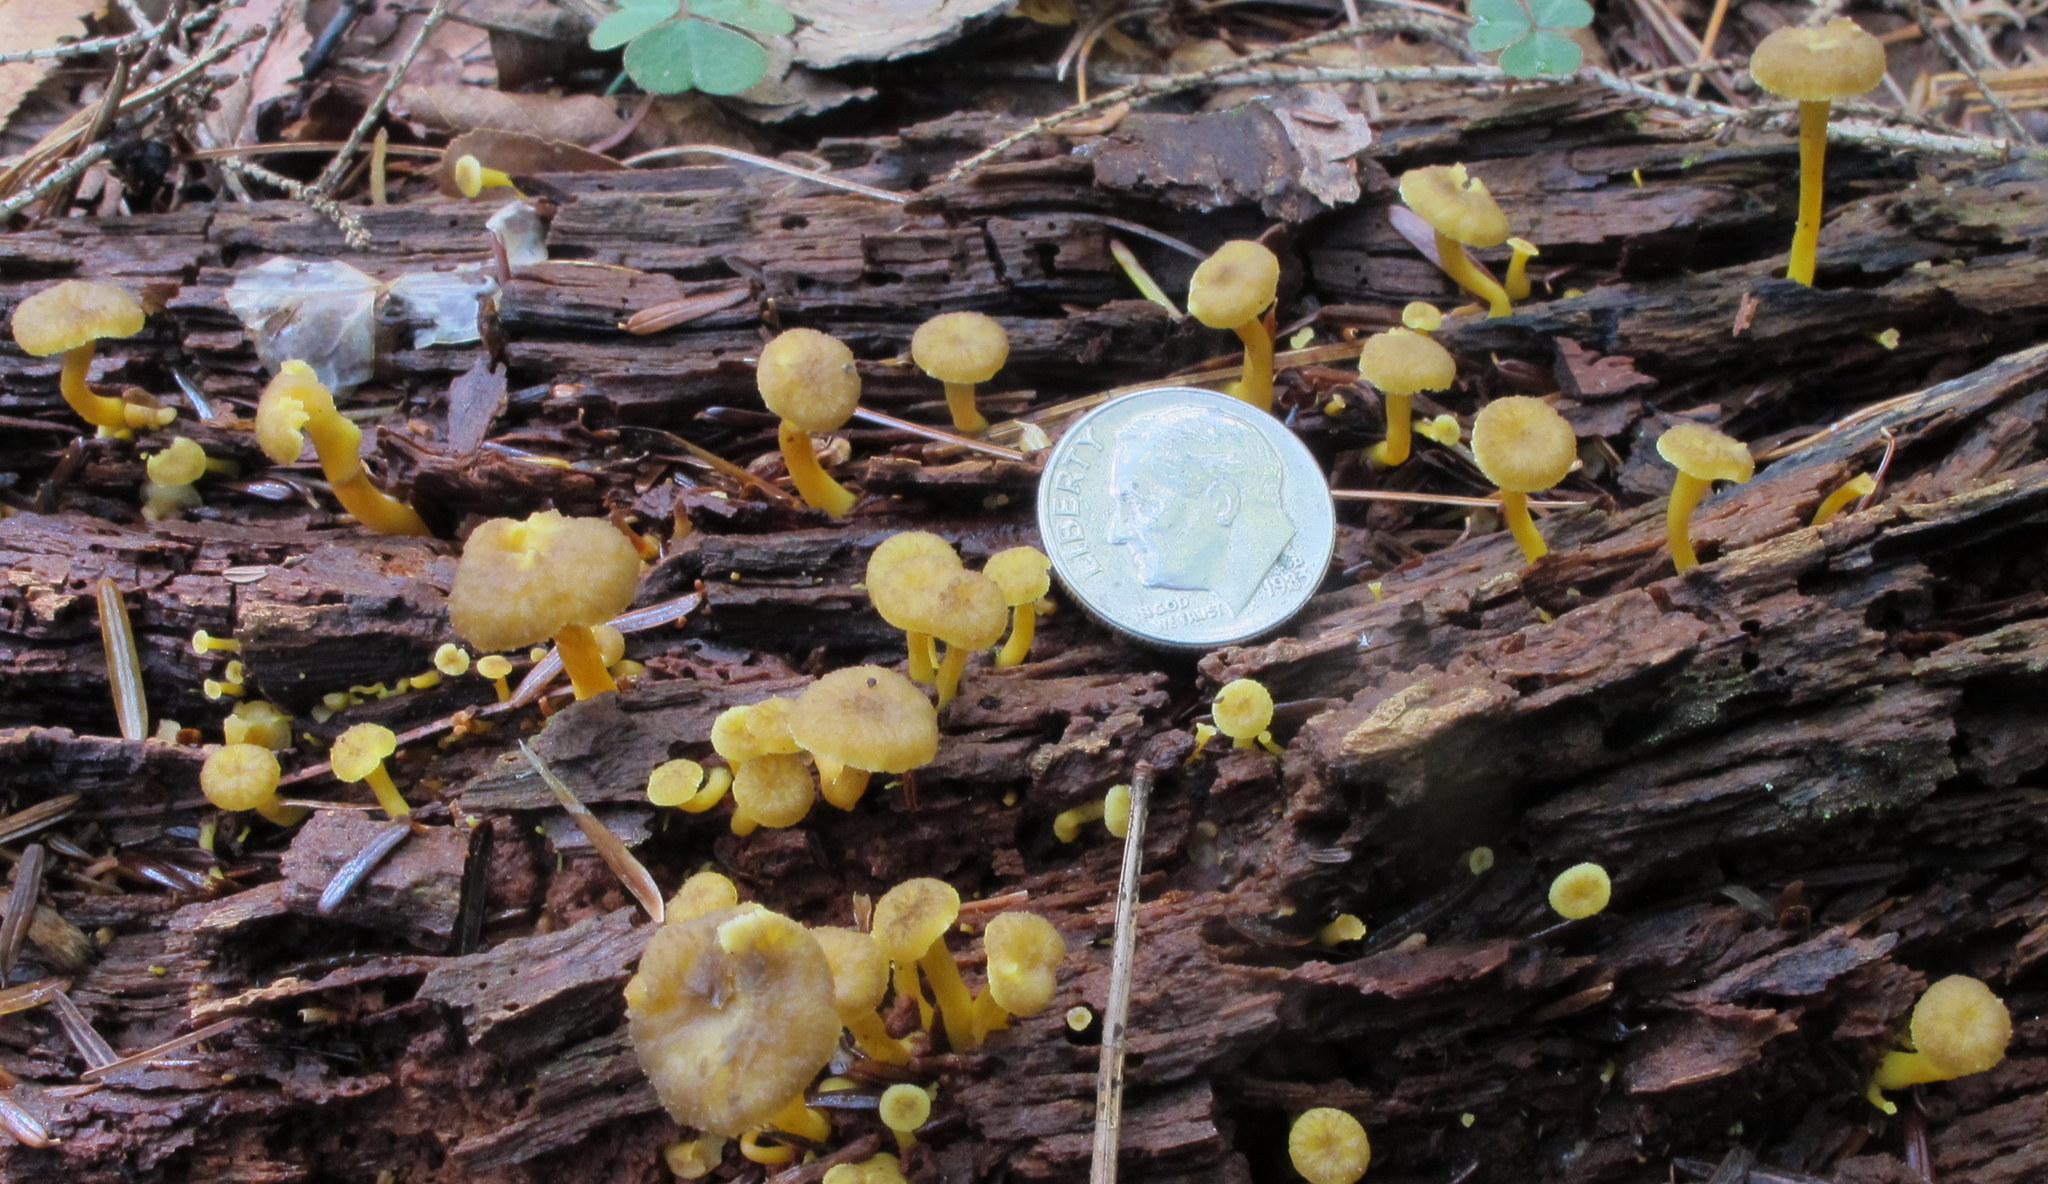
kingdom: Fungi
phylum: Basidiomycota
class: Agaricomycetes
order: Cantharellales
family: Hydnaceae
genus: Craterellus
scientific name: Craterellus tubaeformis
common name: Yellowfoot
